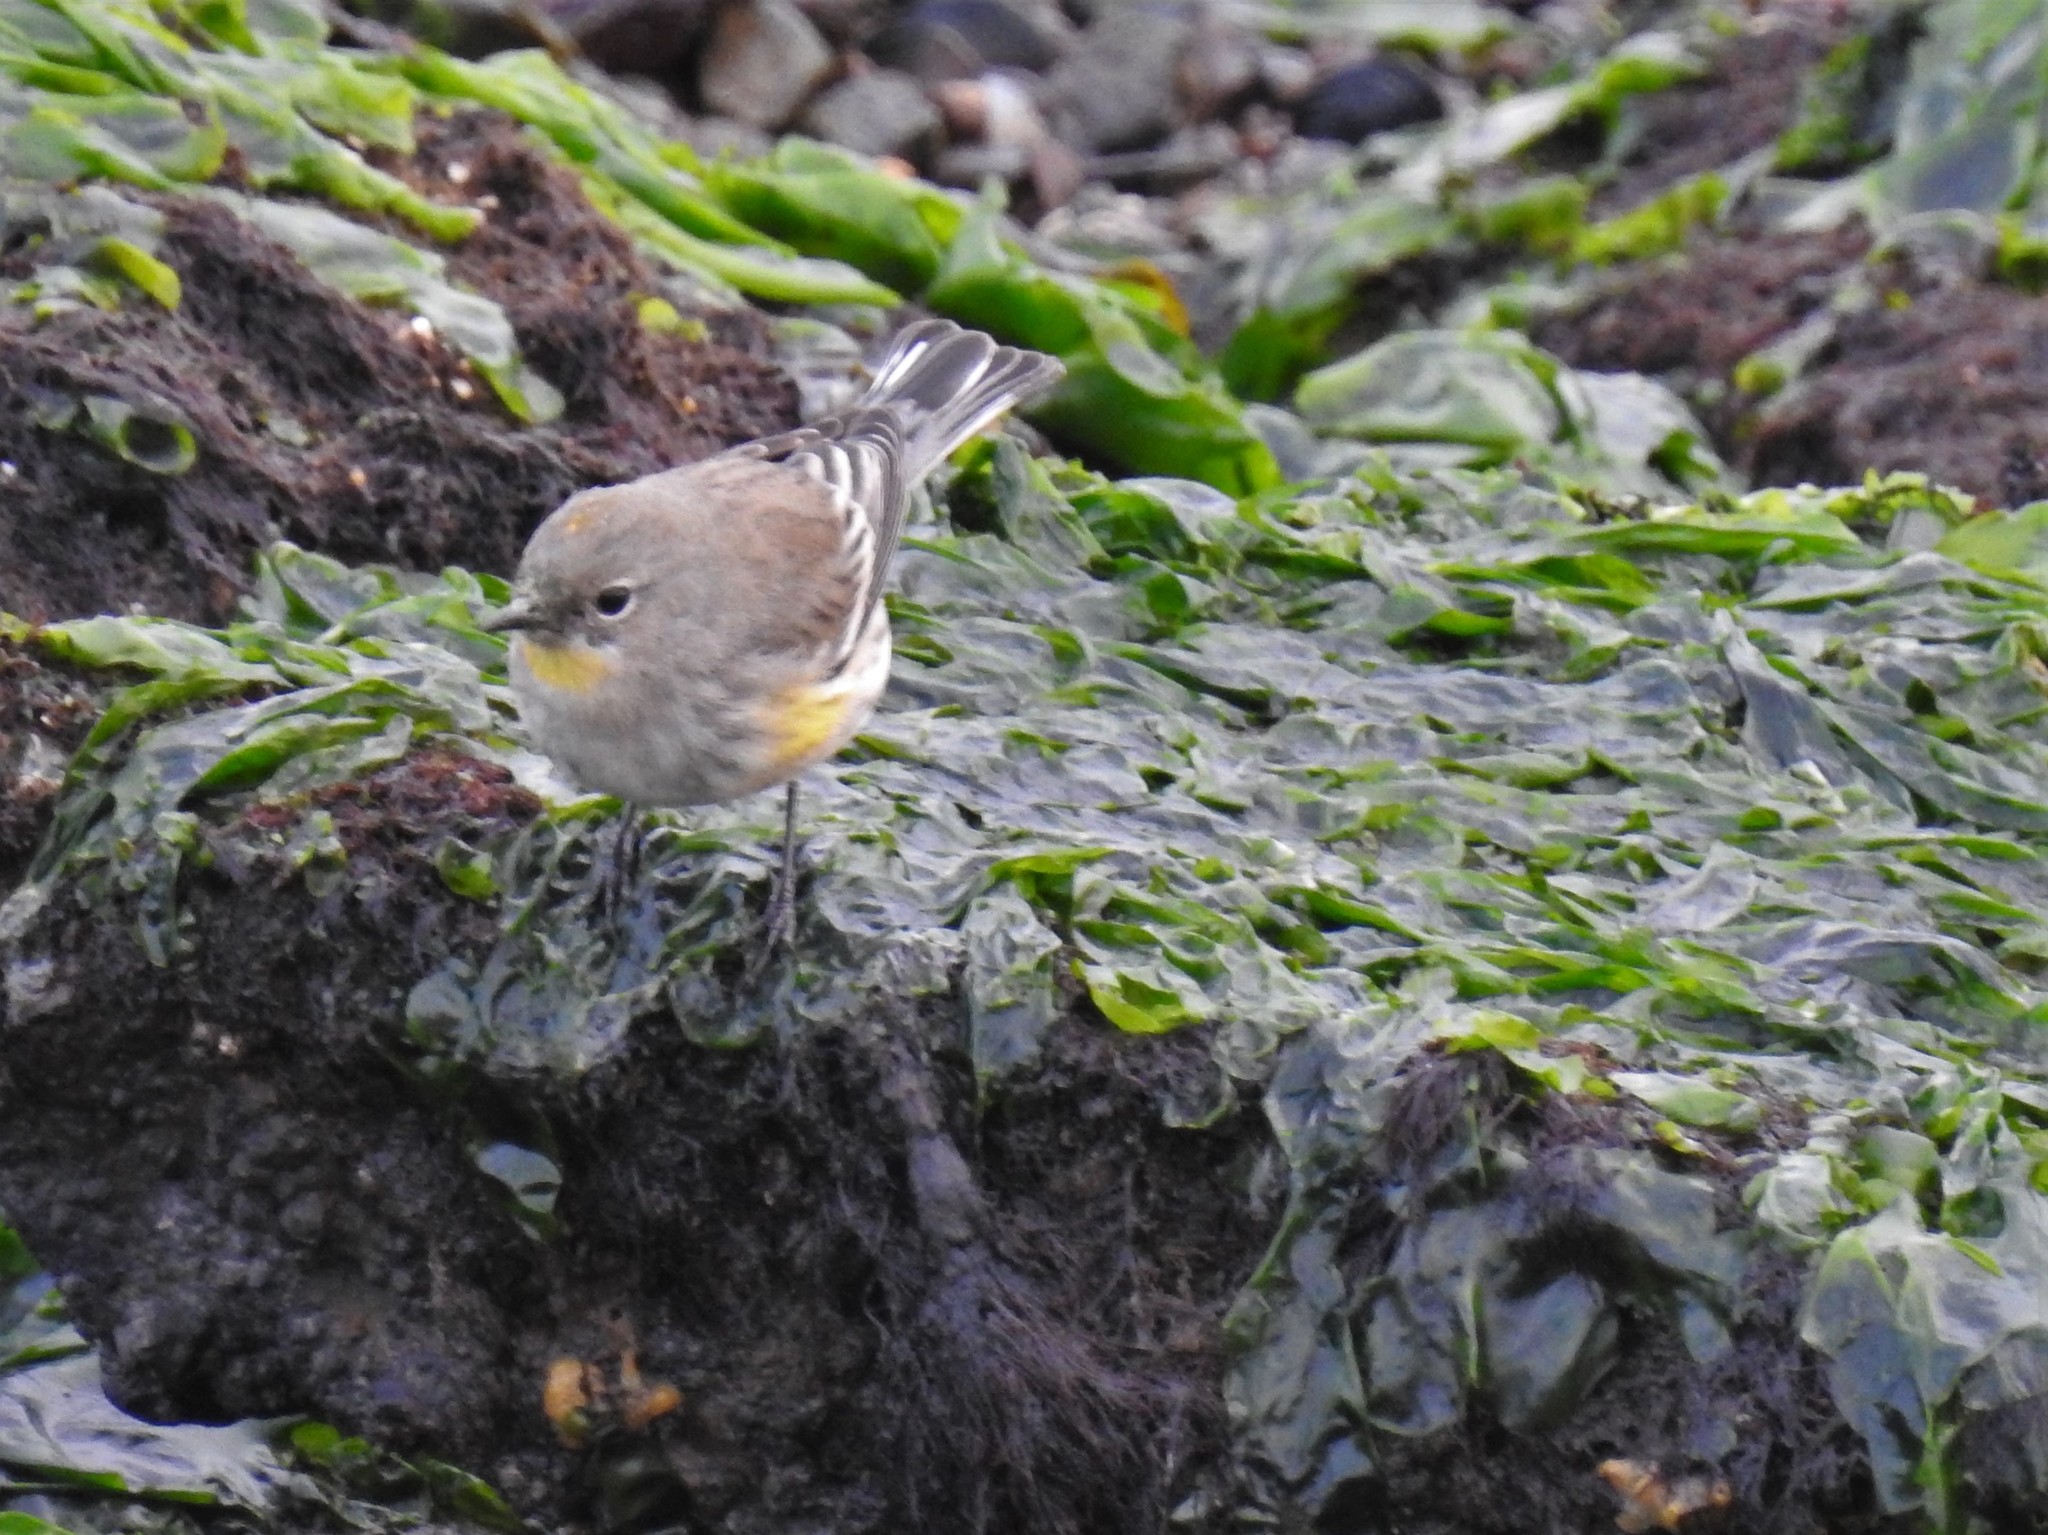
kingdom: Animalia
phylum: Chordata
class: Aves
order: Passeriformes
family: Parulidae
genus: Setophaga
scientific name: Setophaga coronata
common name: Myrtle warbler
